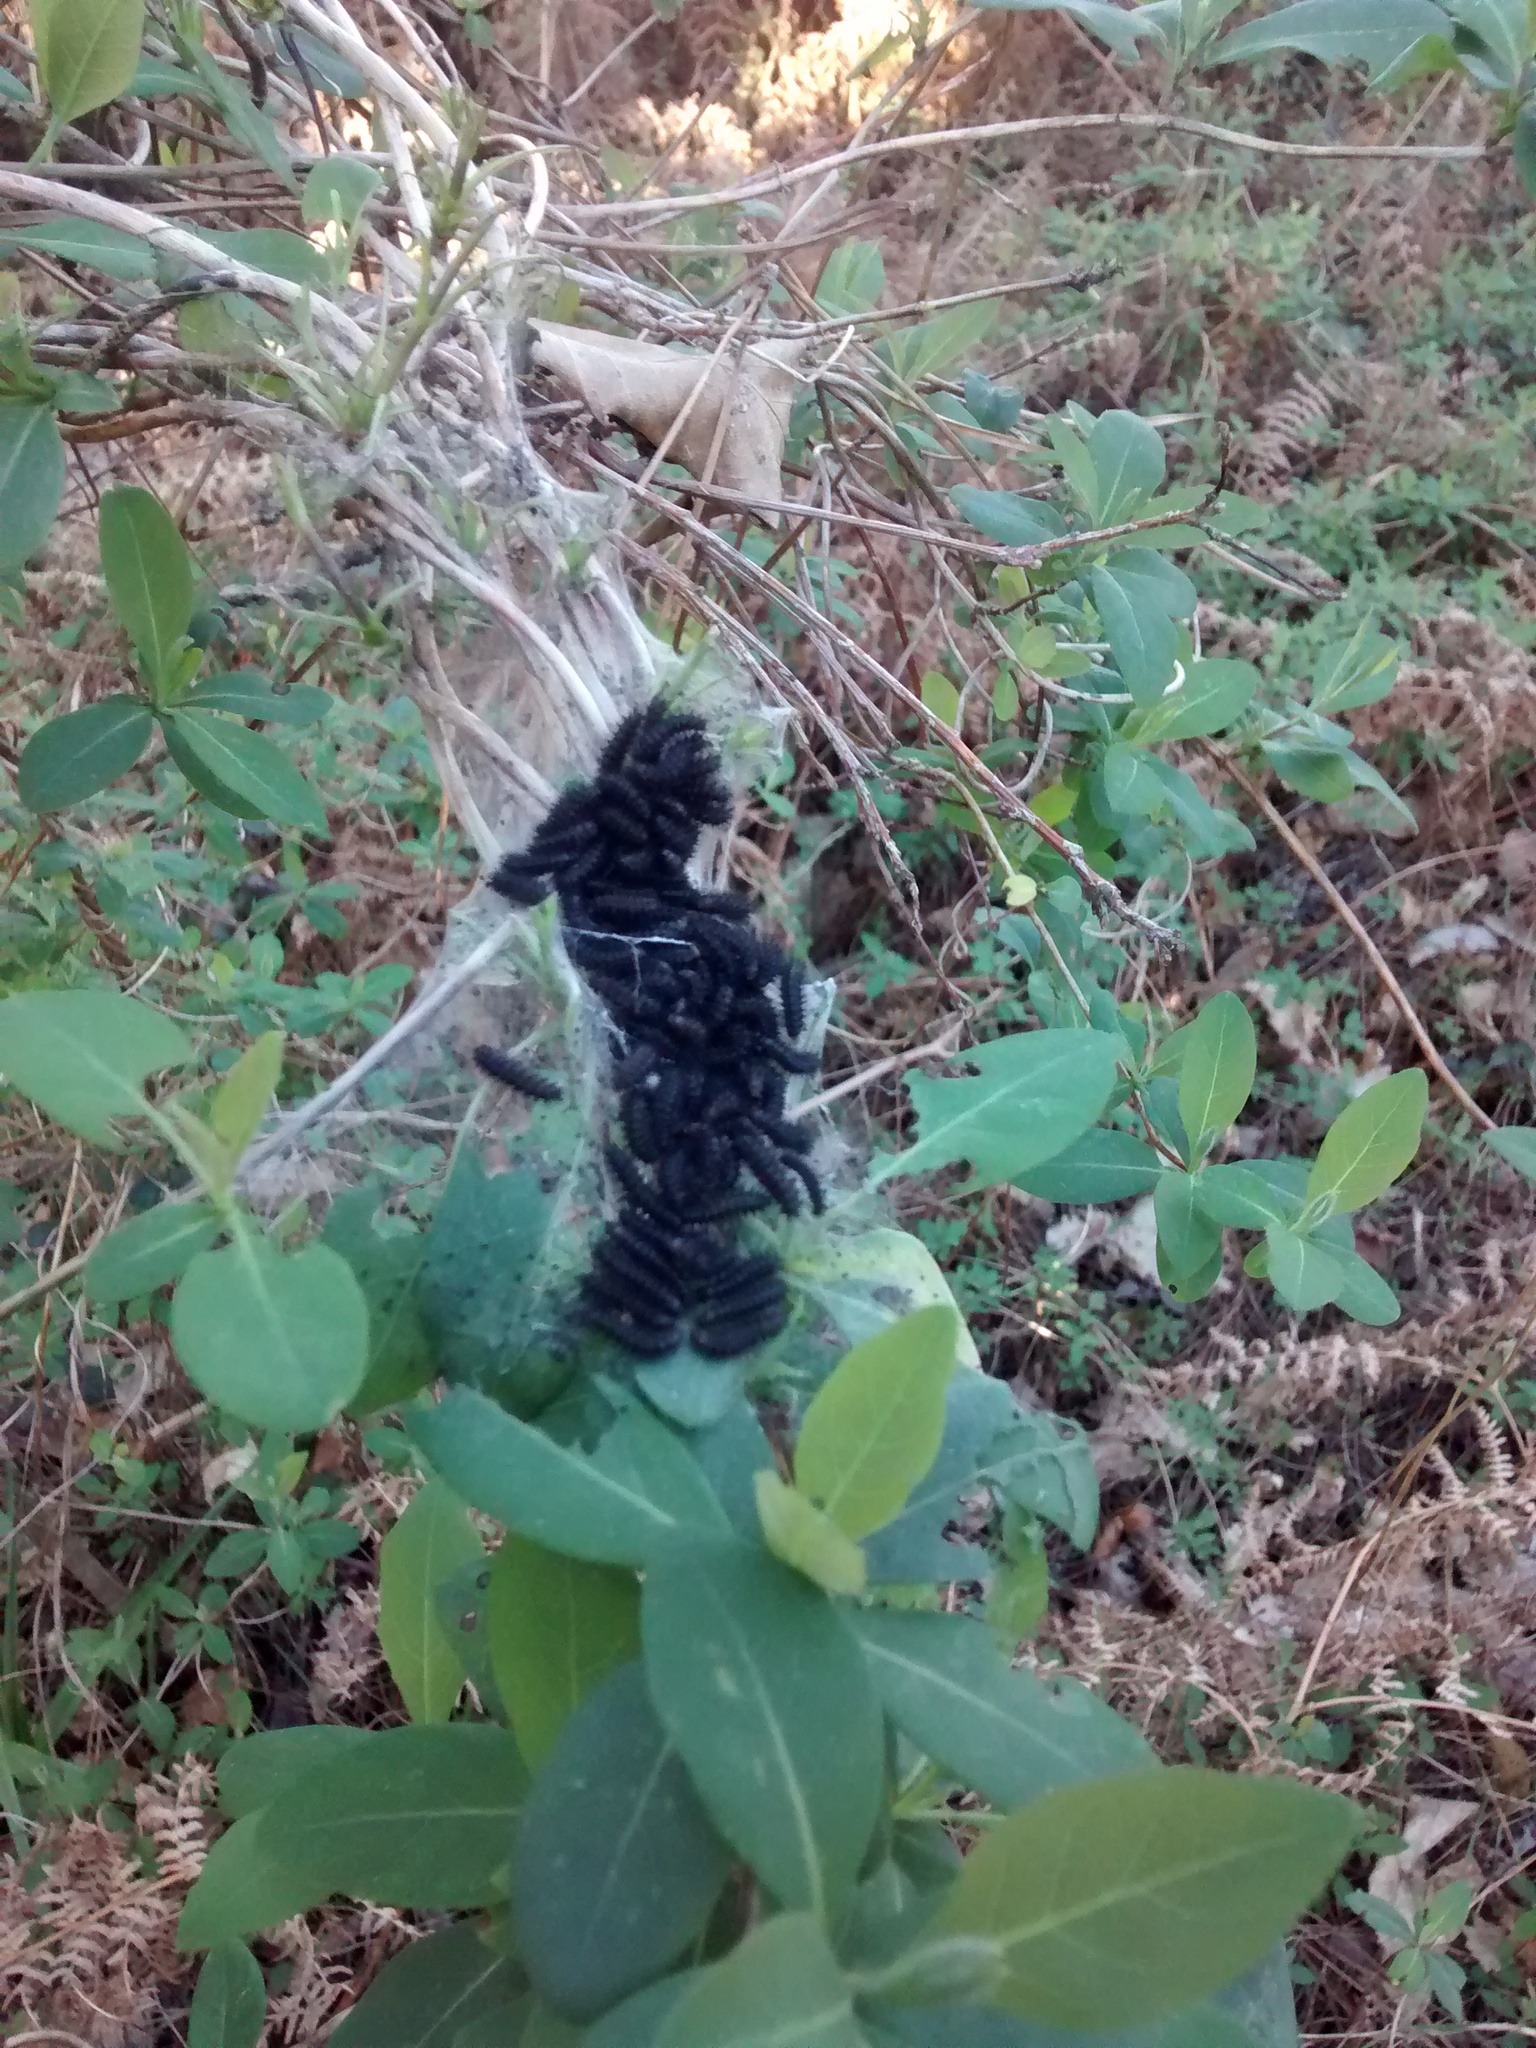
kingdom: Animalia
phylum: Arthropoda
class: Insecta
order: Lepidoptera
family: Nymphalidae
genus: Euphydryas
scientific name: Euphydryas aurinia
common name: Marsh fritillary
